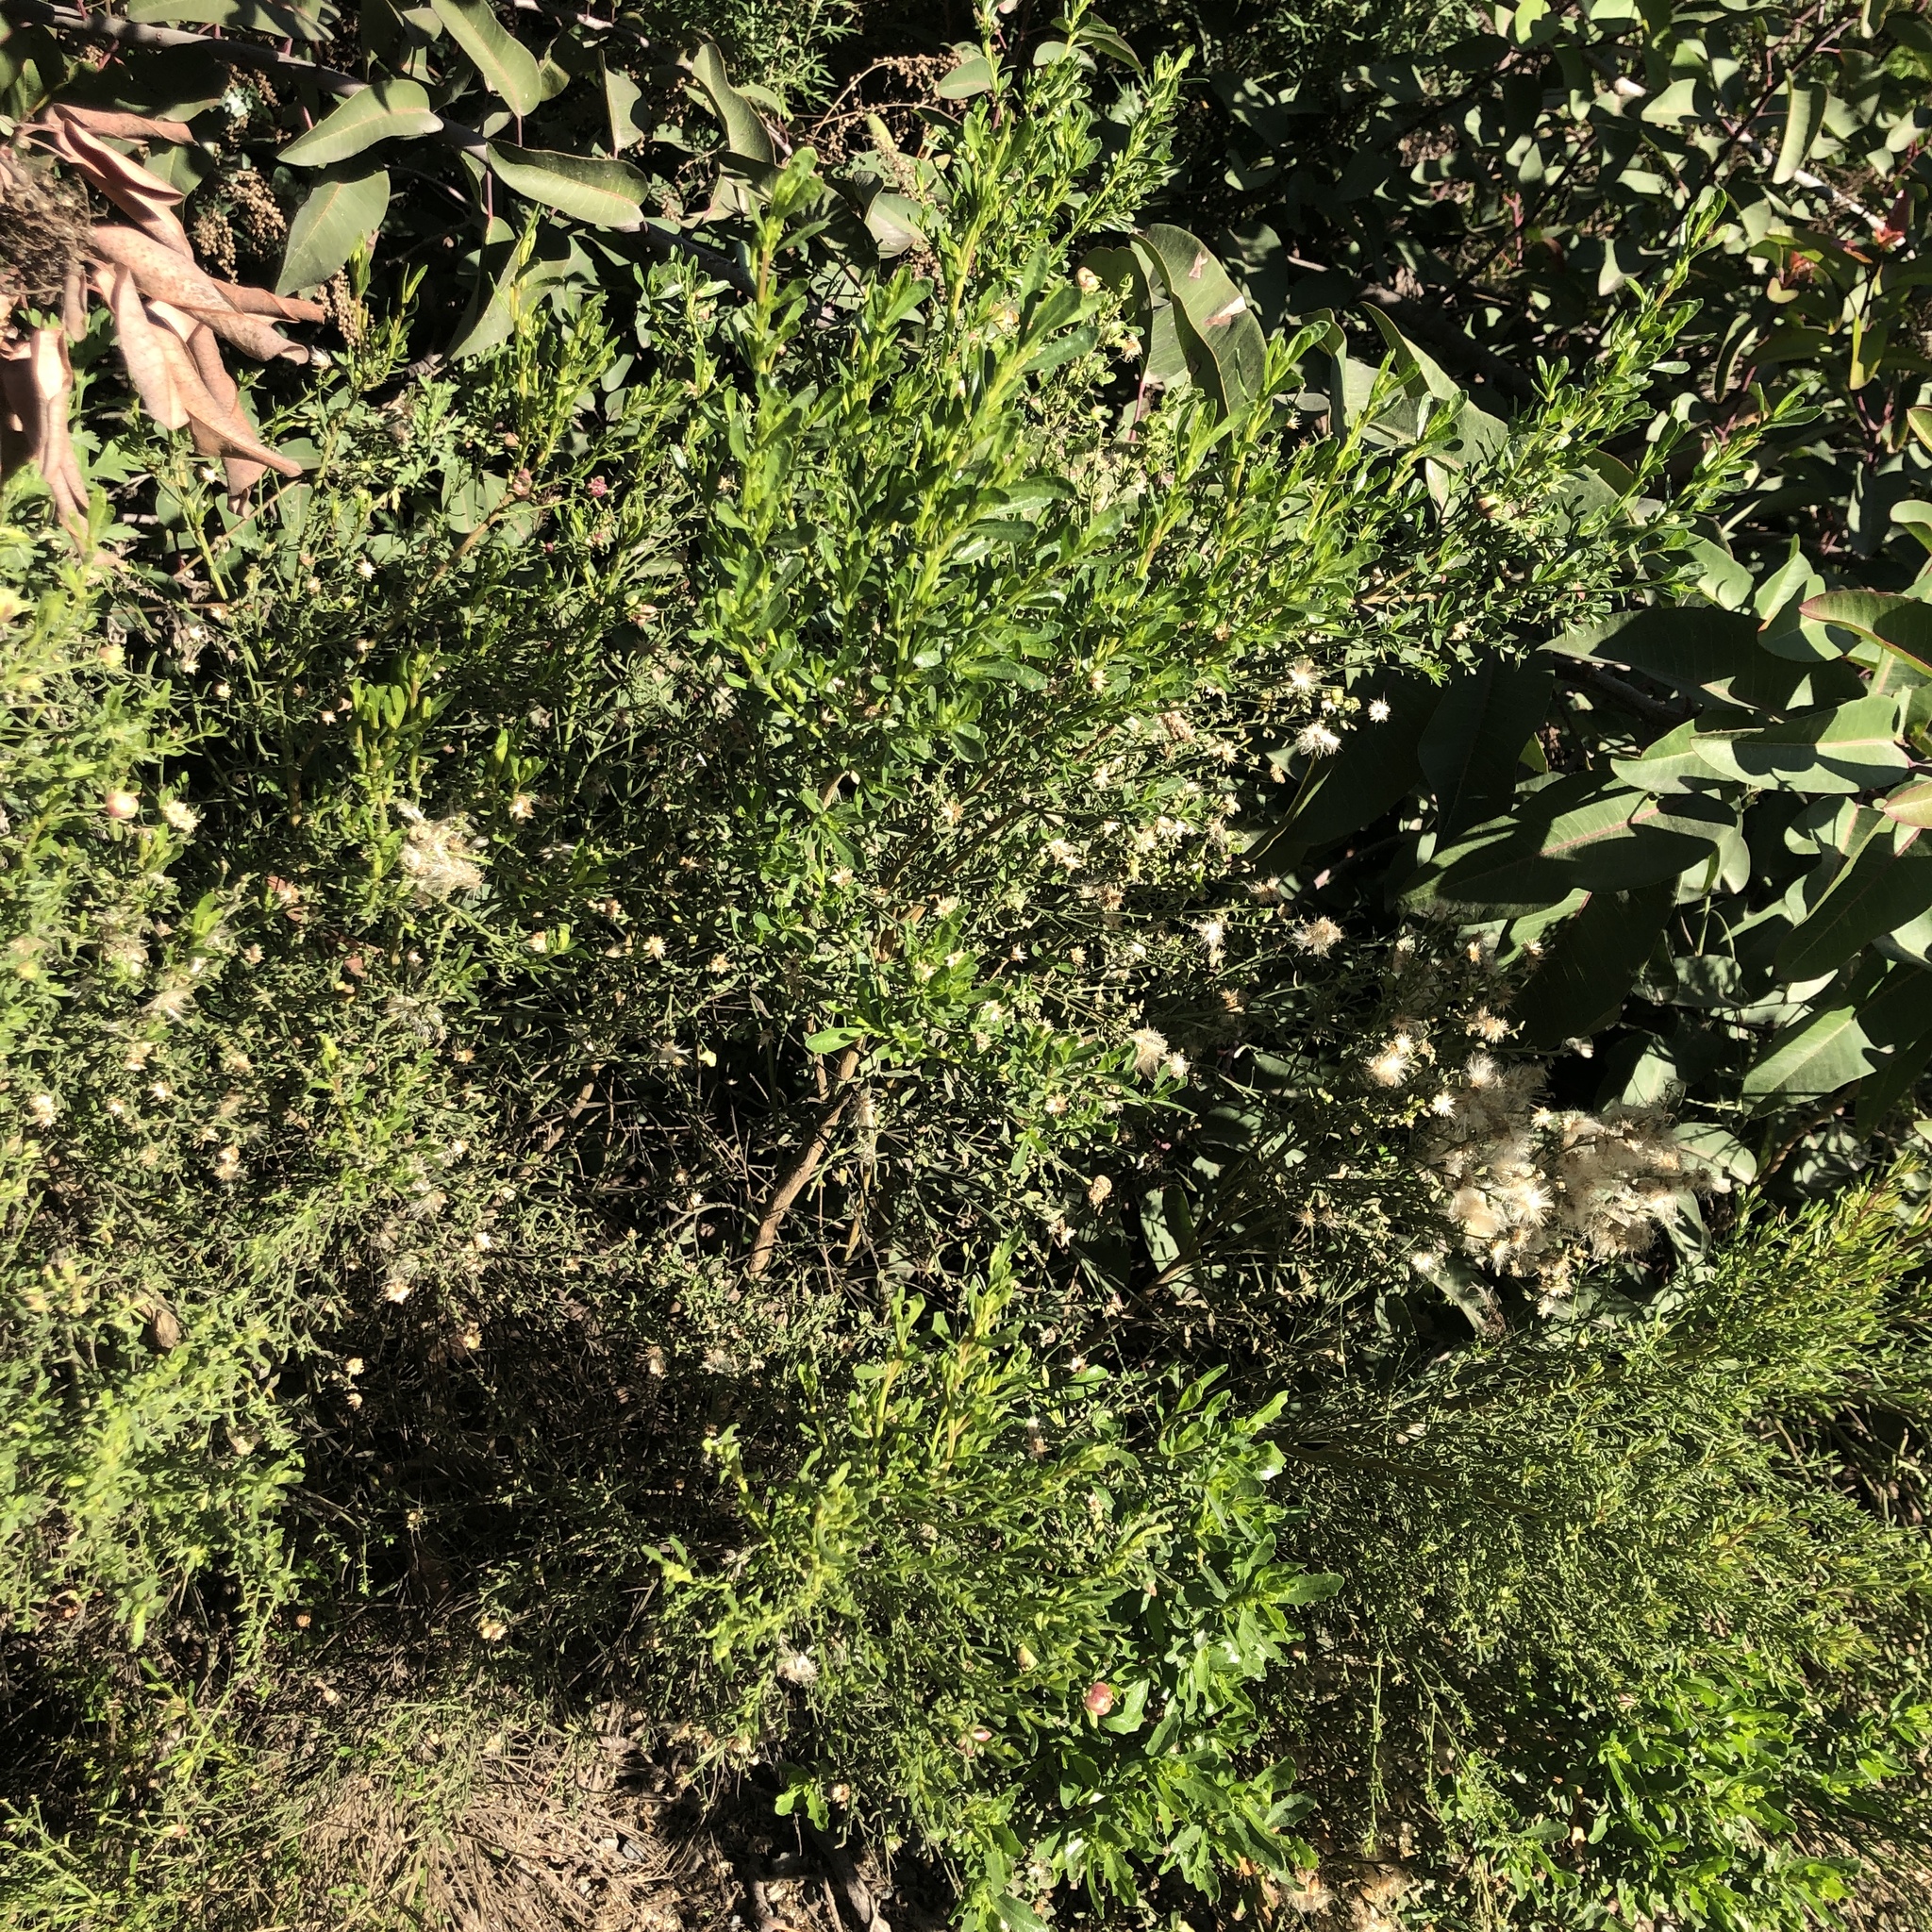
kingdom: Plantae
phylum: Tracheophyta
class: Magnoliopsida
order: Asterales
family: Asteraceae
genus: Baccharis
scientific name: Baccharis pilularis
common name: Coyotebrush
